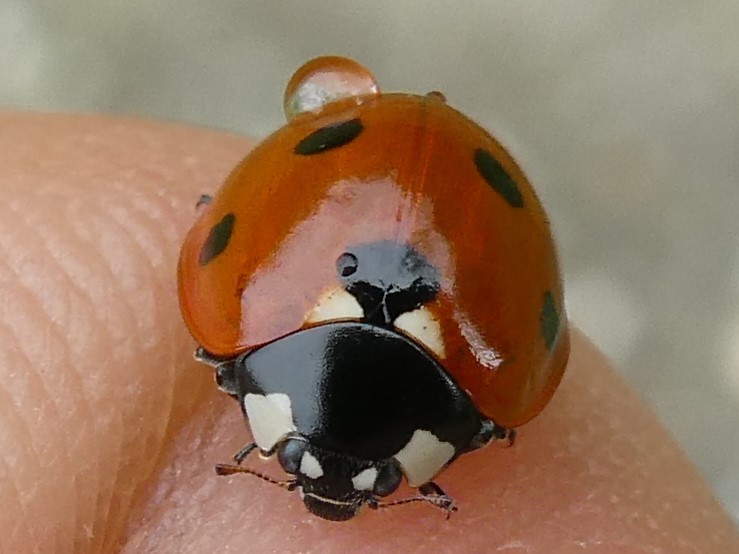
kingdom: Animalia
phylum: Arthropoda
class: Insecta
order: Coleoptera
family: Coccinellidae
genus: Coccinella
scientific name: Coccinella septempunctata
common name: Sevenspotted lady beetle
